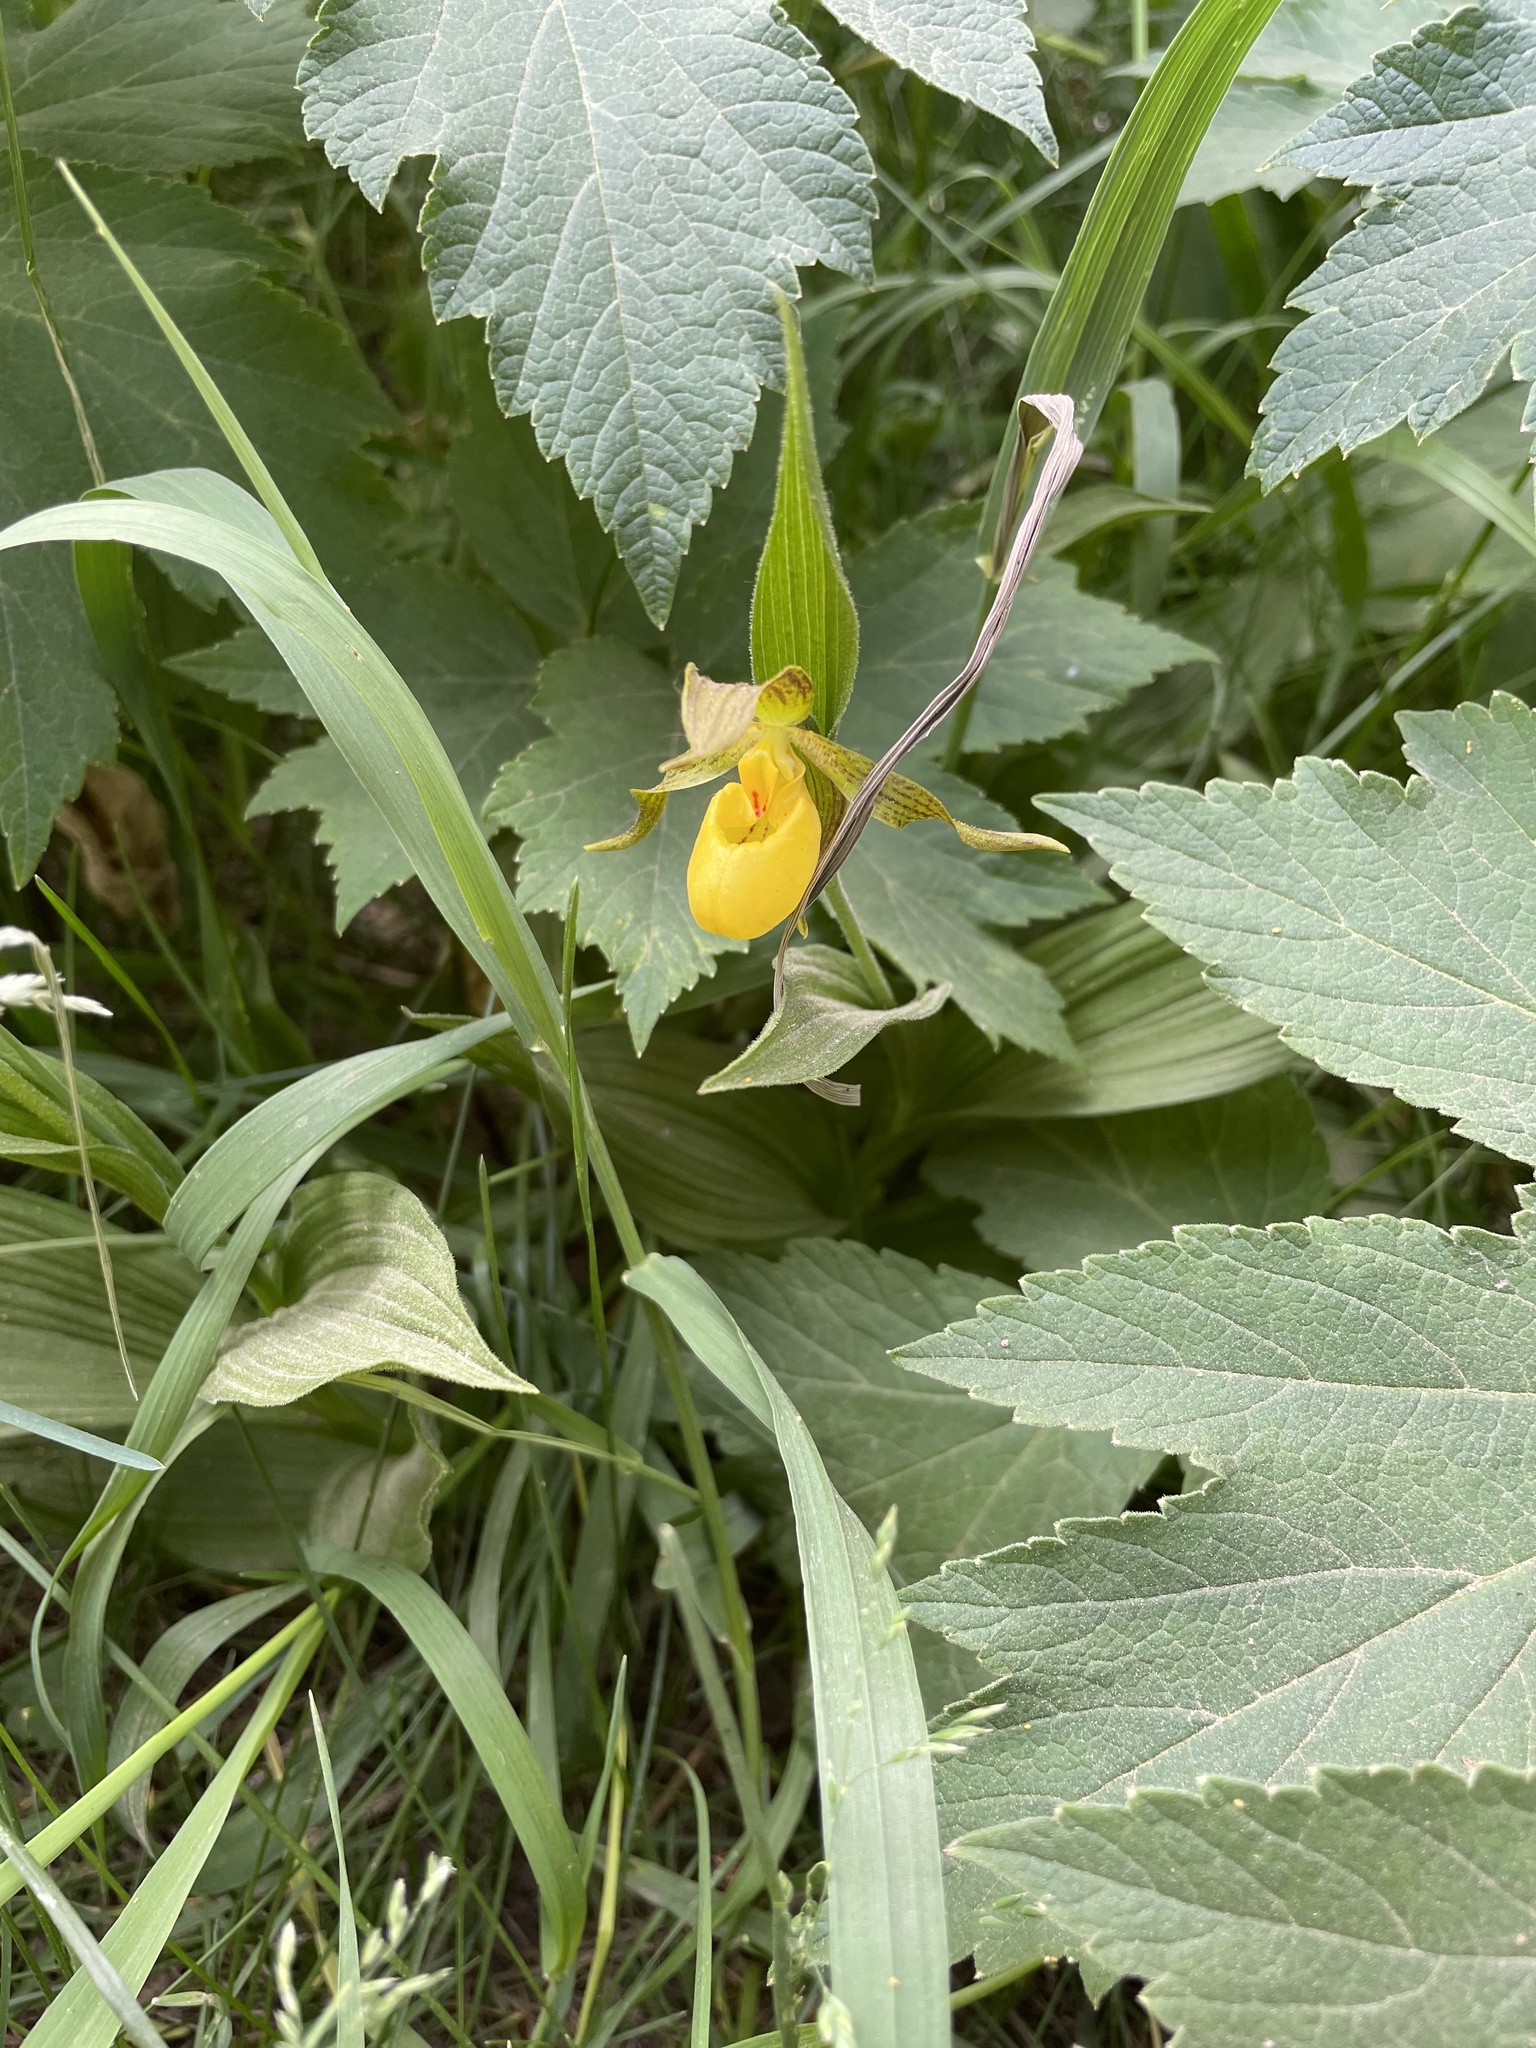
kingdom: Plantae
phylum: Tracheophyta
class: Liliopsida
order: Asparagales
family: Orchidaceae
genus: Cypripedium
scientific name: Cypripedium parviflorum
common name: American yellow lady's-slipper
